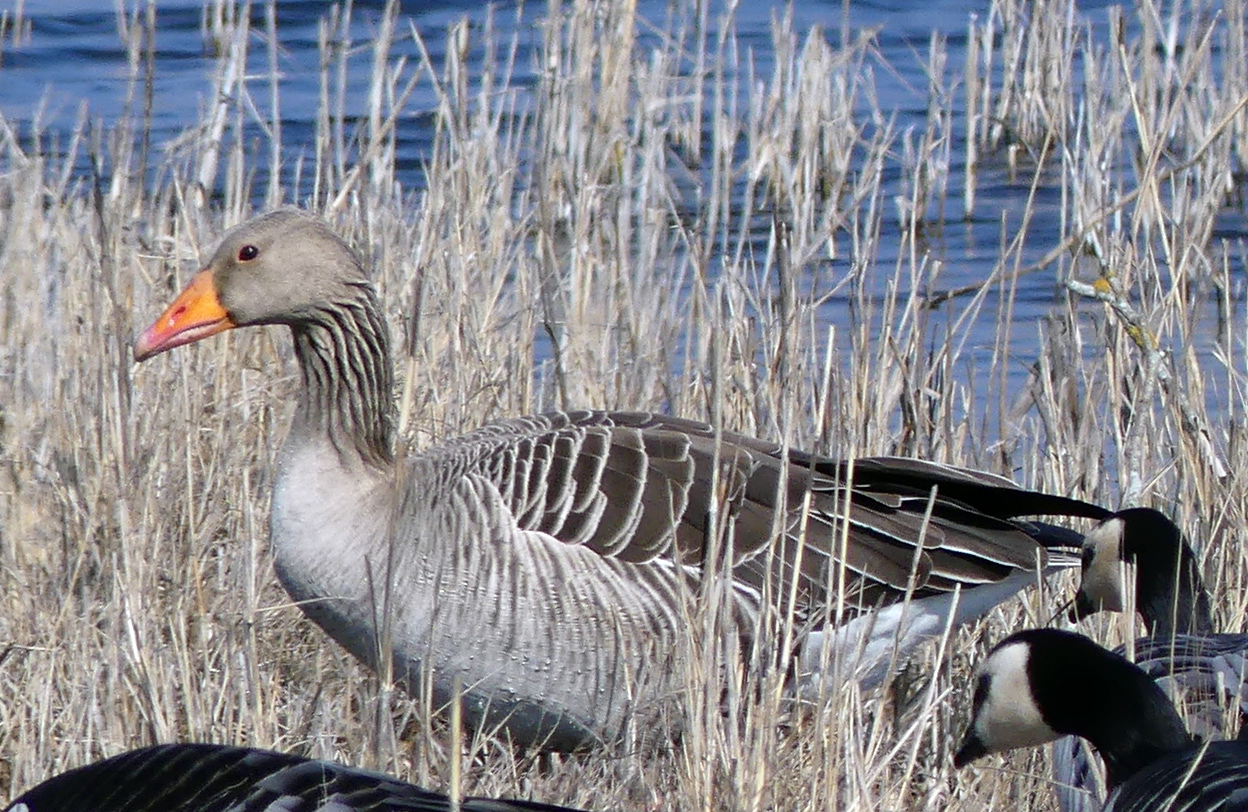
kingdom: Animalia
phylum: Chordata
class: Aves
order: Anseriformes
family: Anatidae
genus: Anser
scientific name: Anser anser
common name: Greylag goose
